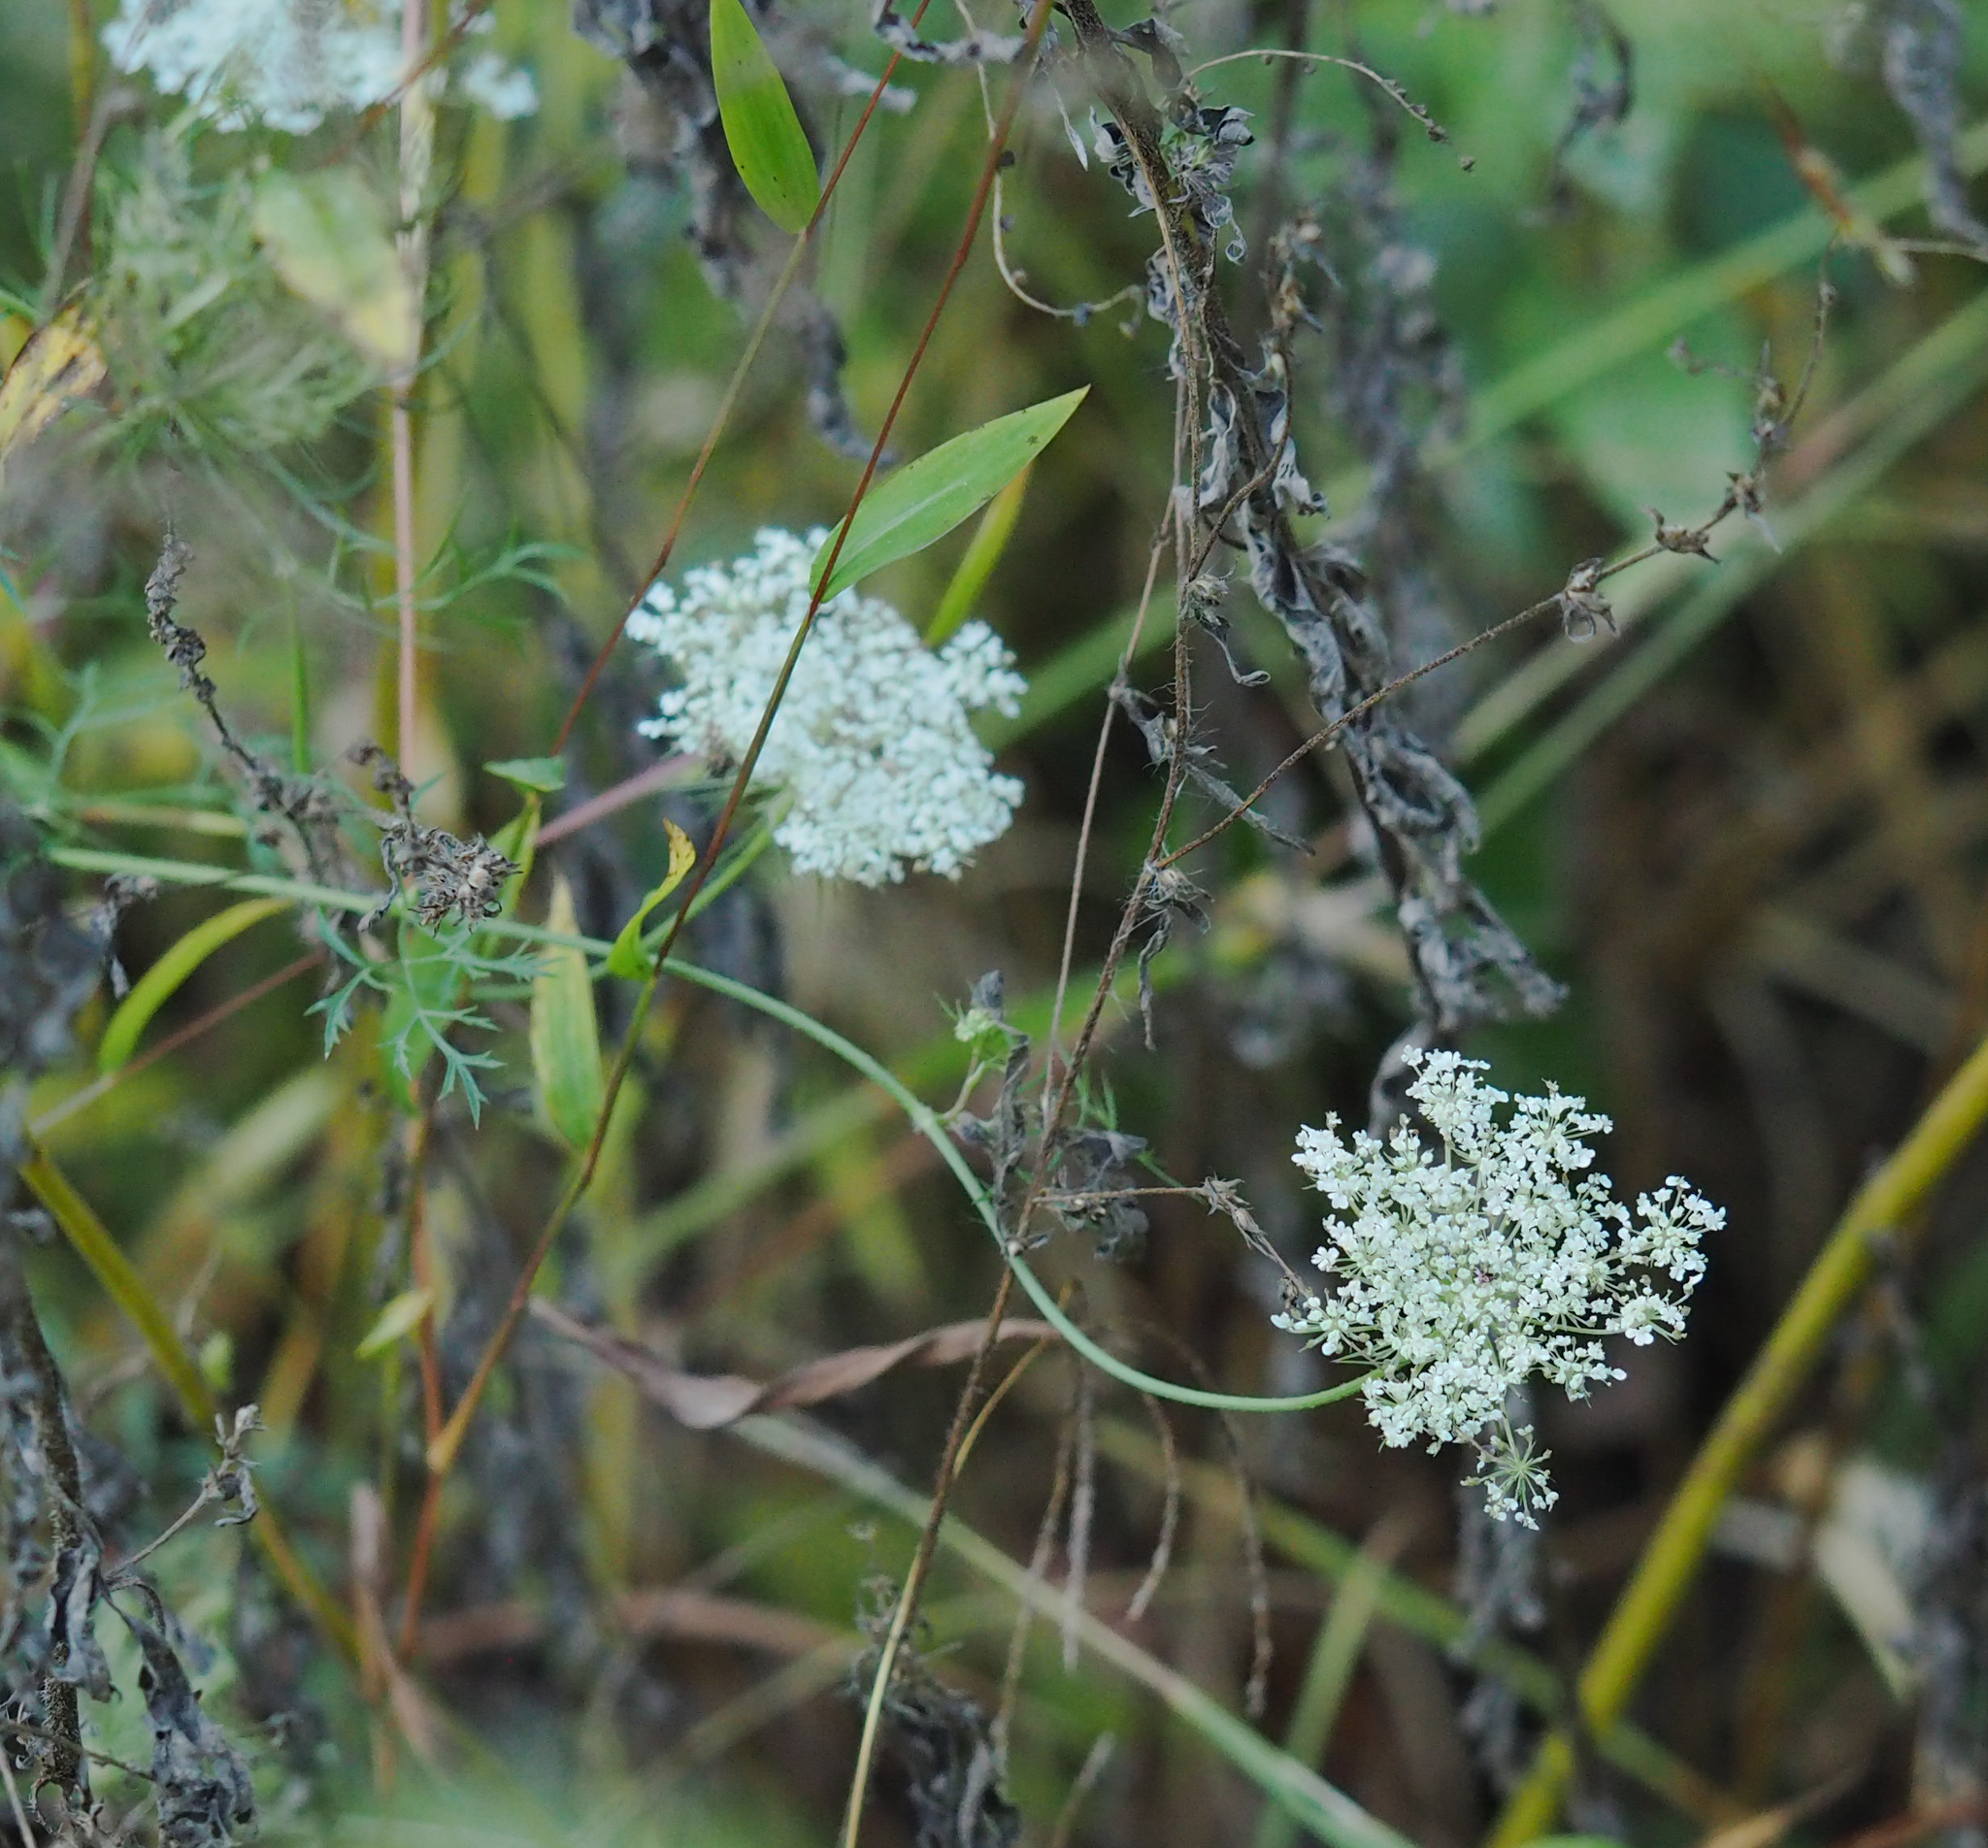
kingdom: Plantae
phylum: Tracheophyta
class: Magnoliopsida
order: Apiales
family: Apiaceae
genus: Daucus
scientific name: Daucus carota
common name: Wild carrot
